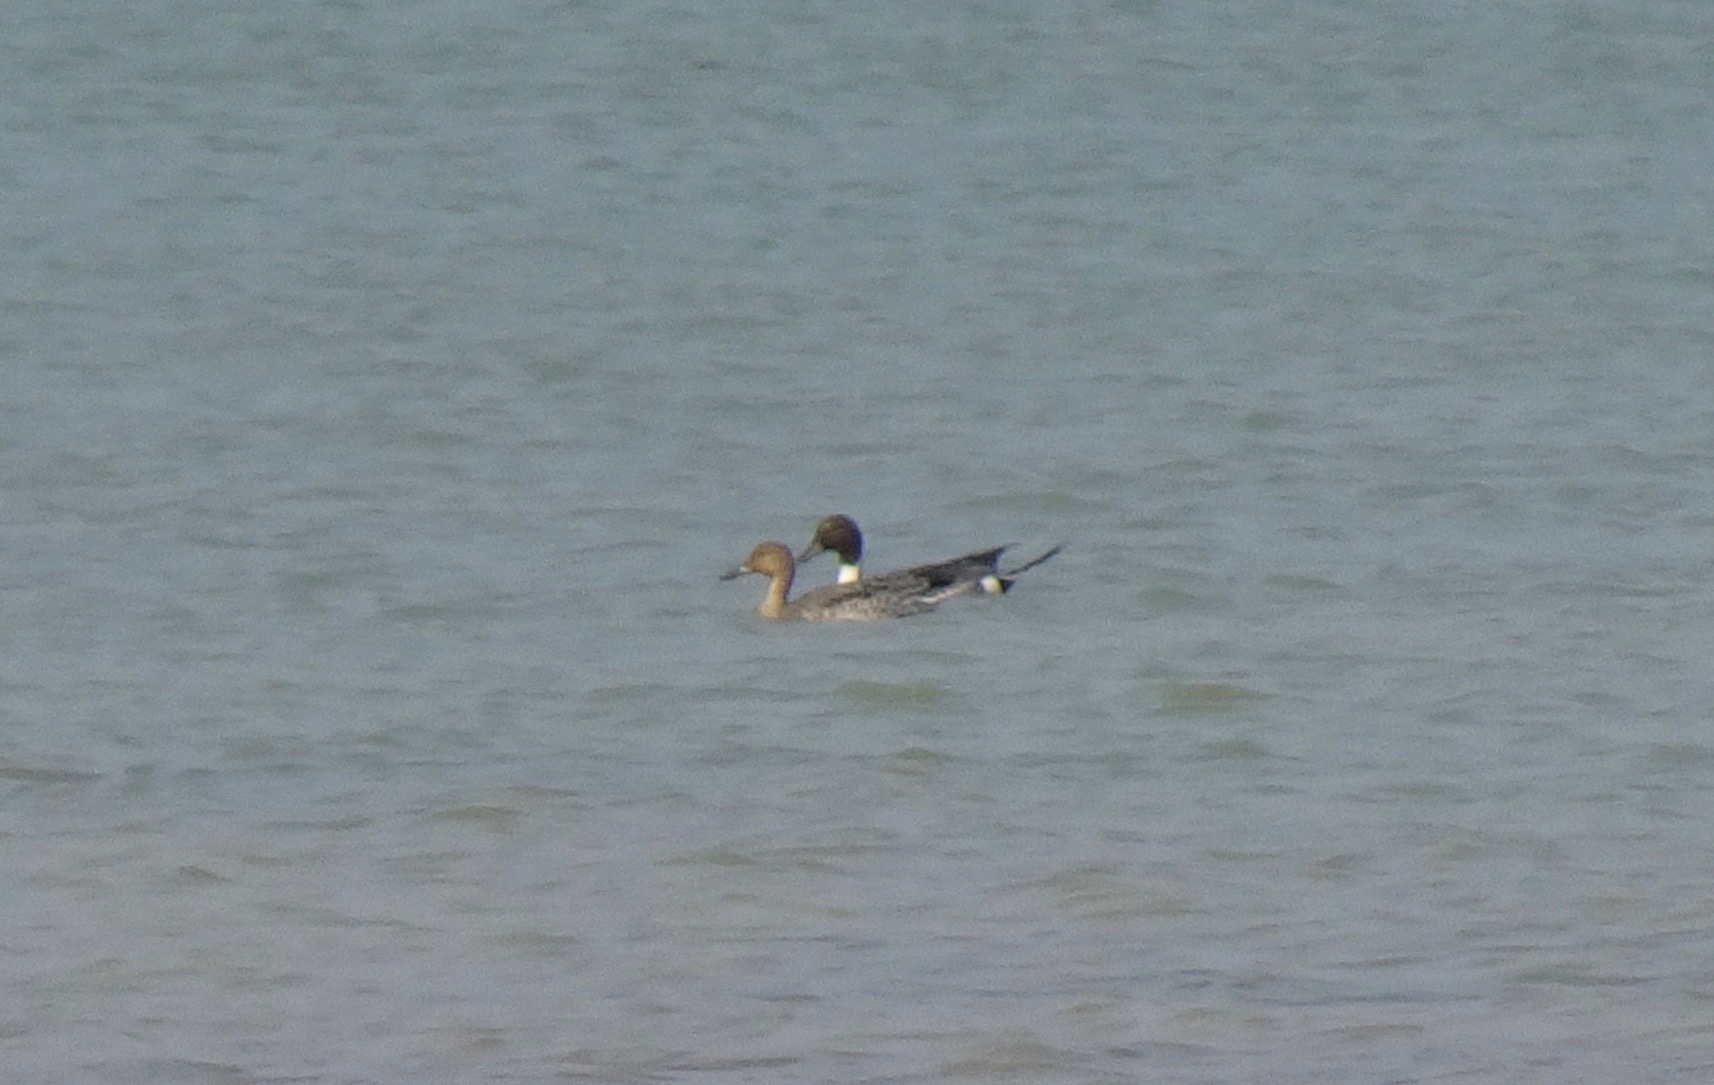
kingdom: Animalia
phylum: Chordata
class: Aves
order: Anseriformes
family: Anatidae
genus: Anas
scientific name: Anas acuta
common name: Northern pintail
